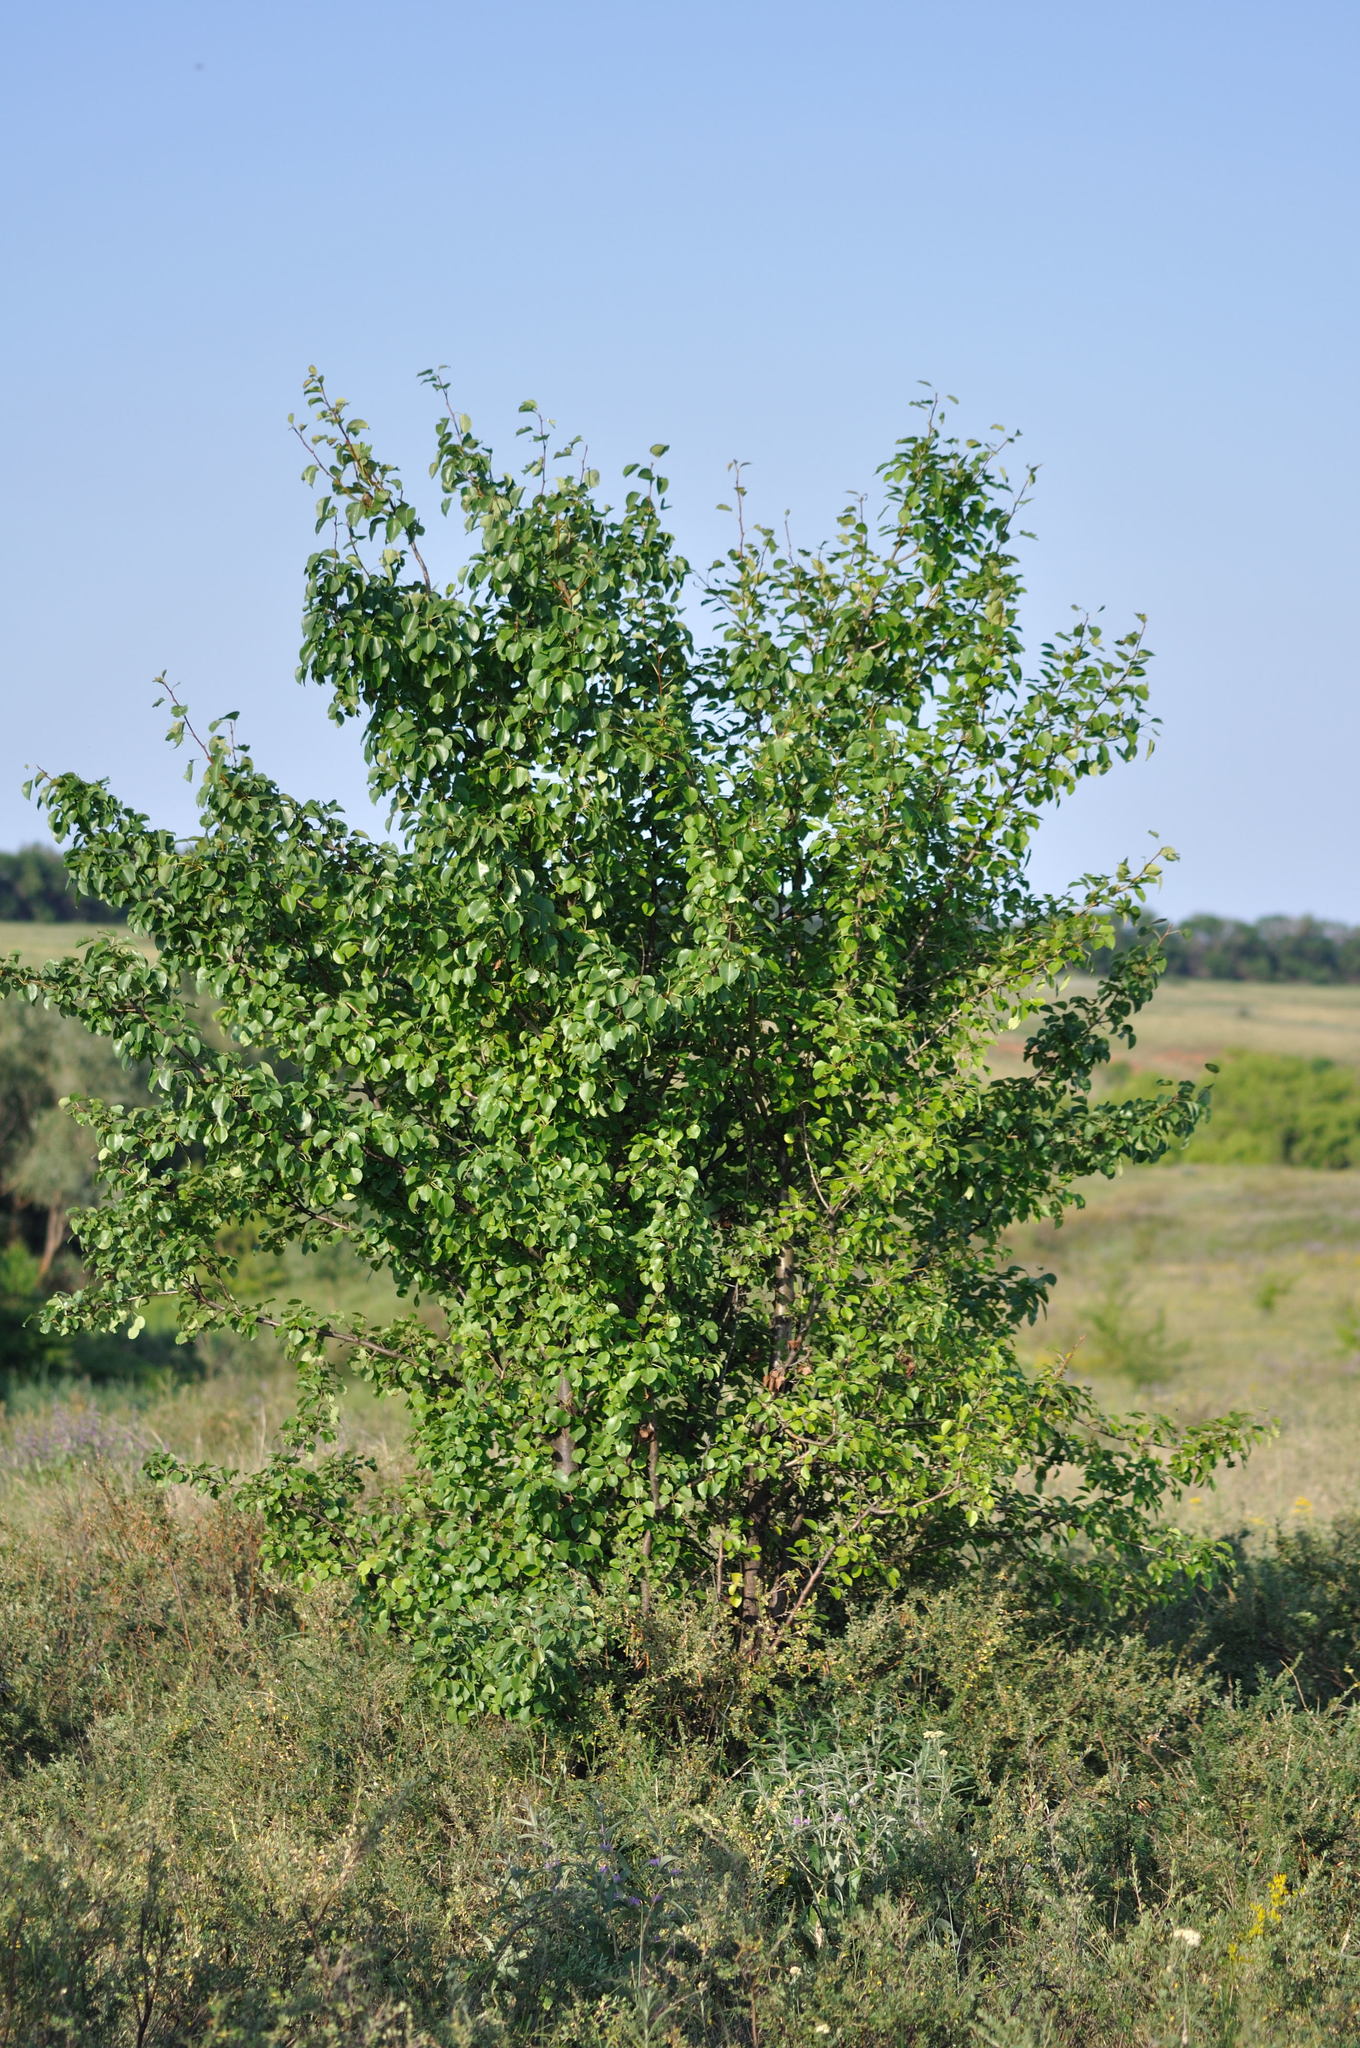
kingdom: Plantae
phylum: Tracheophyta
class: Magnoliopsida
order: Rosales
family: Rosaceae
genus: Pyrus
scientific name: Pyrus communis
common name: Pear
